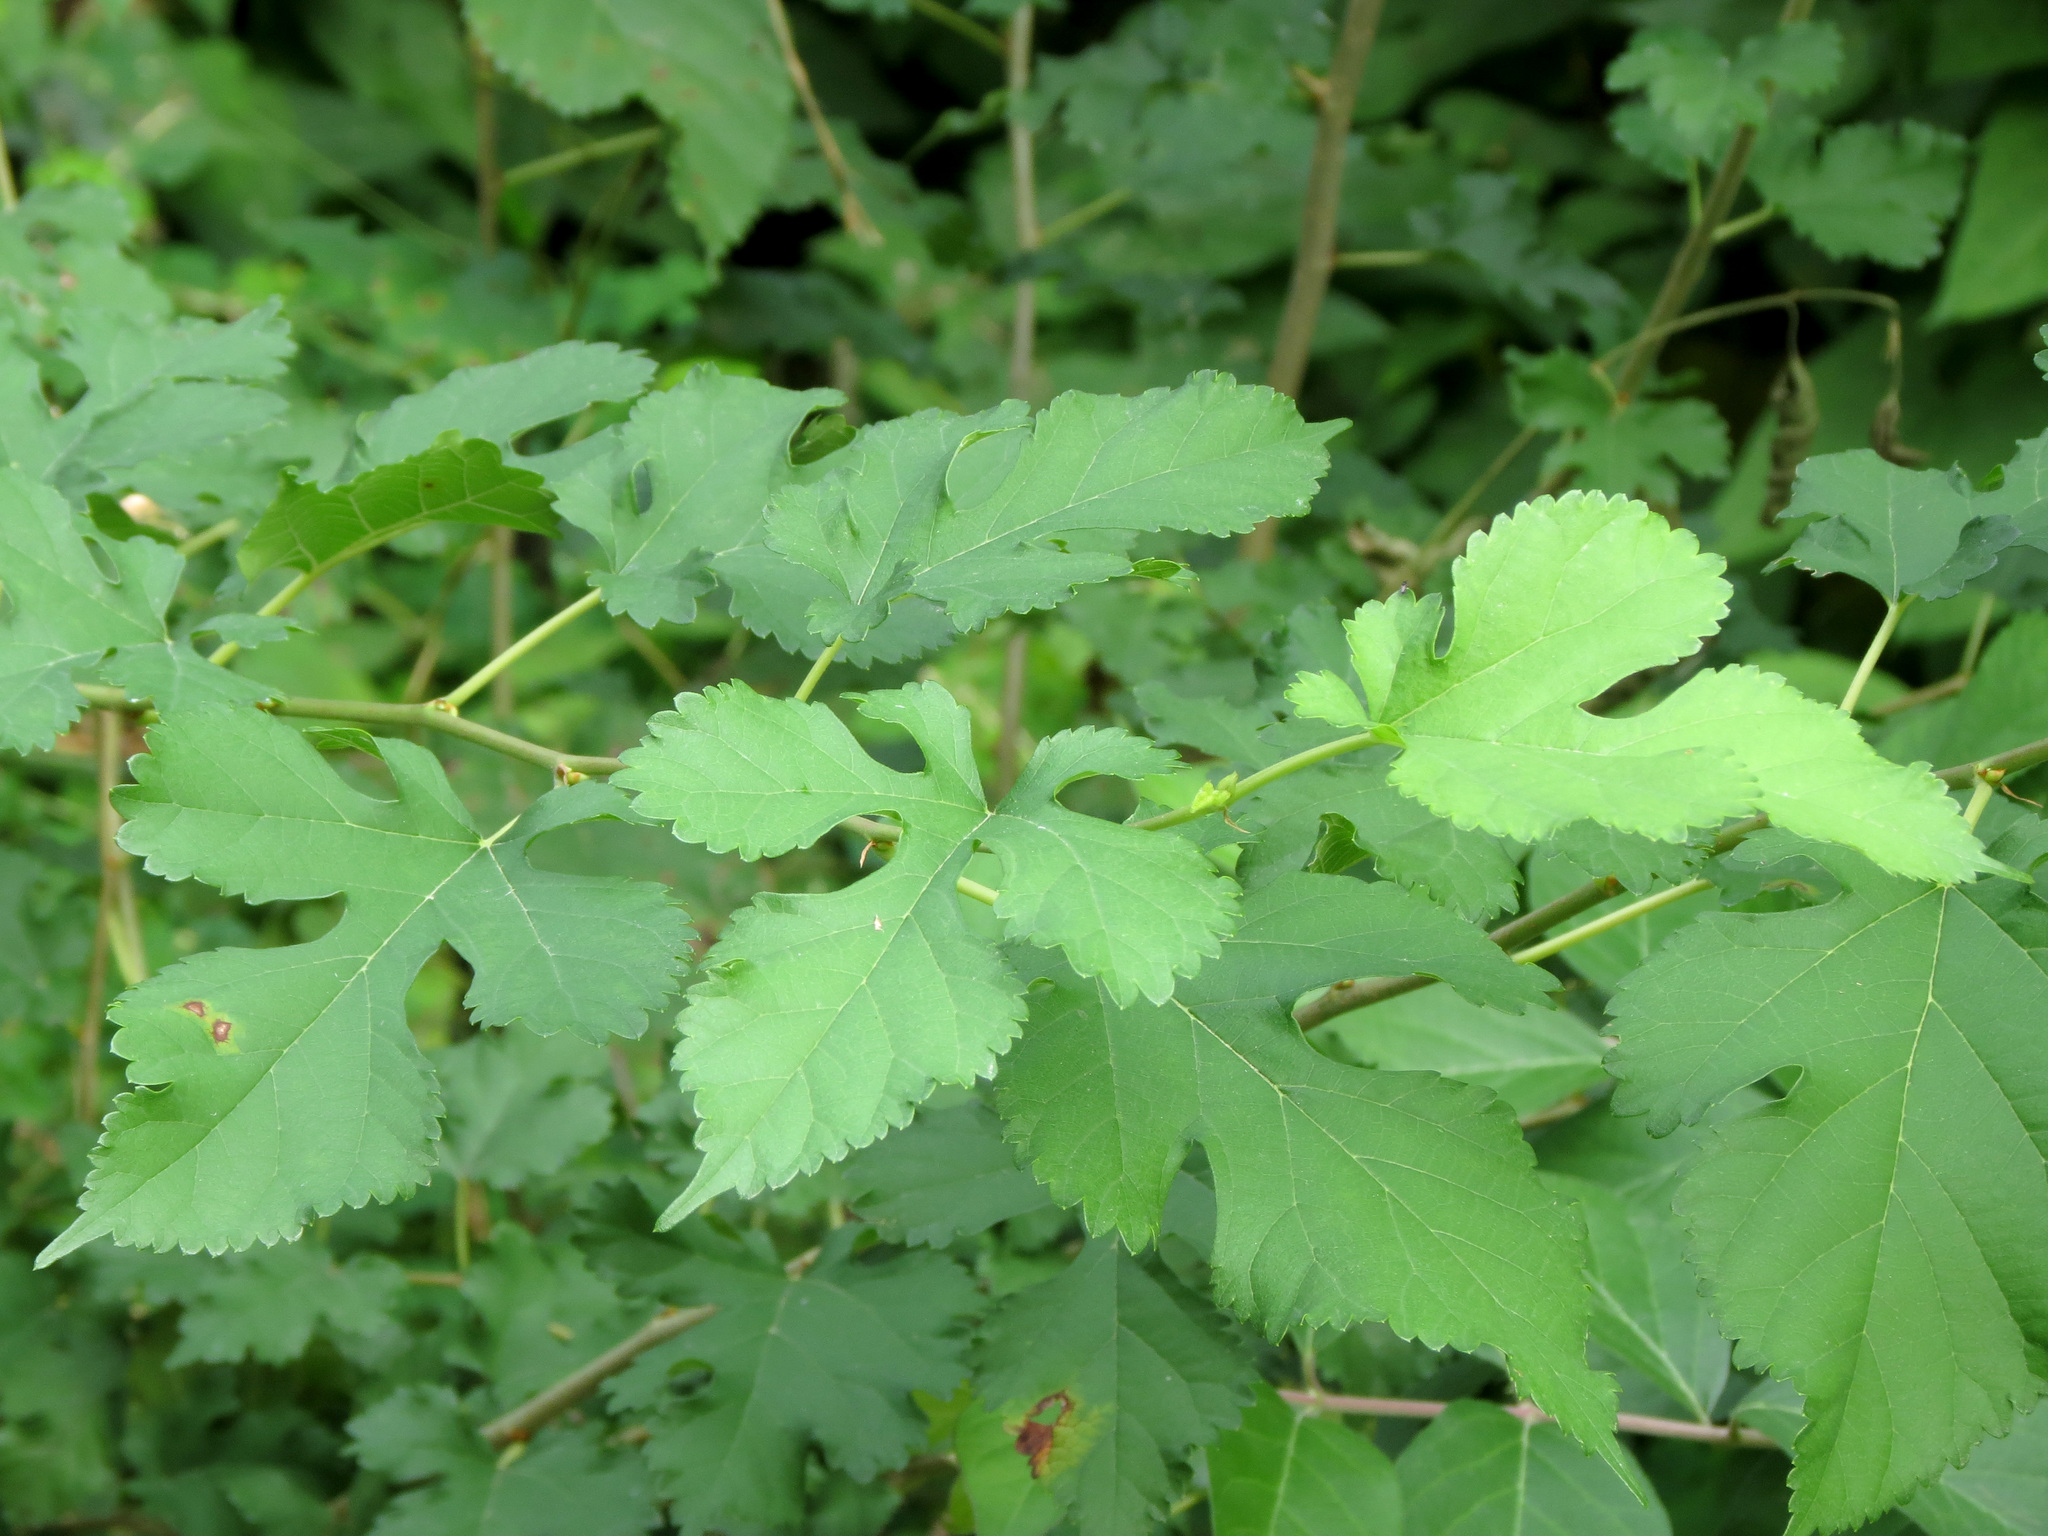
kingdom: Plantae
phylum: Tracheophyta
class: Magnoliopsida
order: Rosales
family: Moraceae
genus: Morus
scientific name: Morus alba
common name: White mulberry
